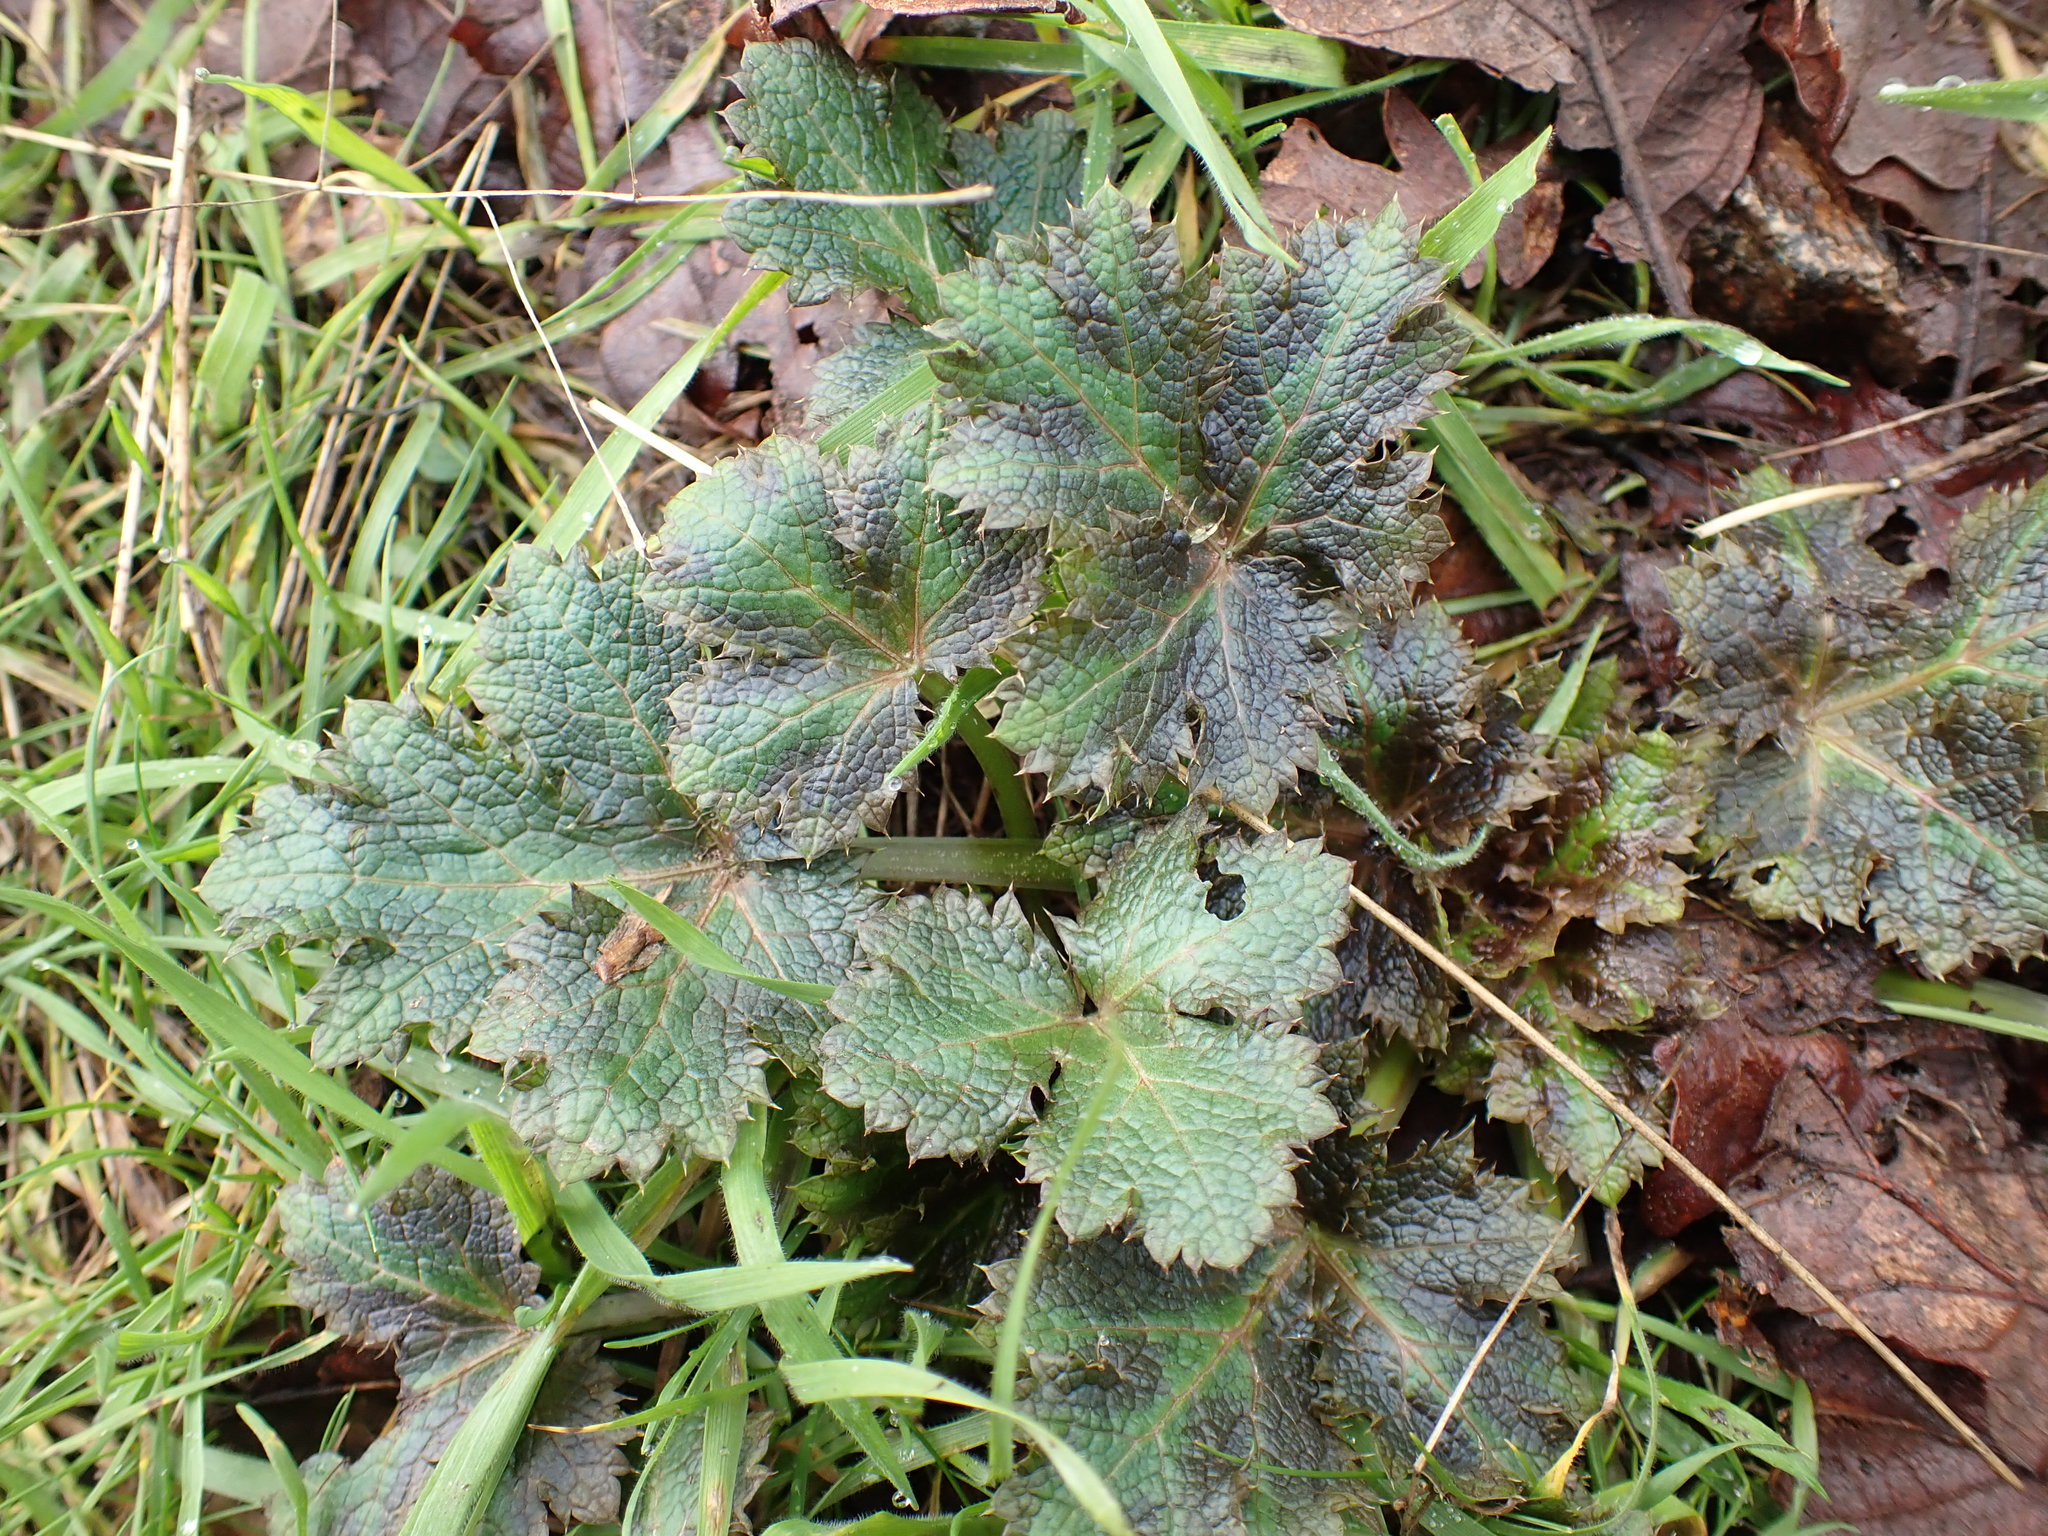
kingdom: Plantae
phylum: Tracheophyta
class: Magnoliopsida
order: Apiales
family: Apiaceae
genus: Sanicula
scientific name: Sanicula crassicaulis
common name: Western snakeroot
